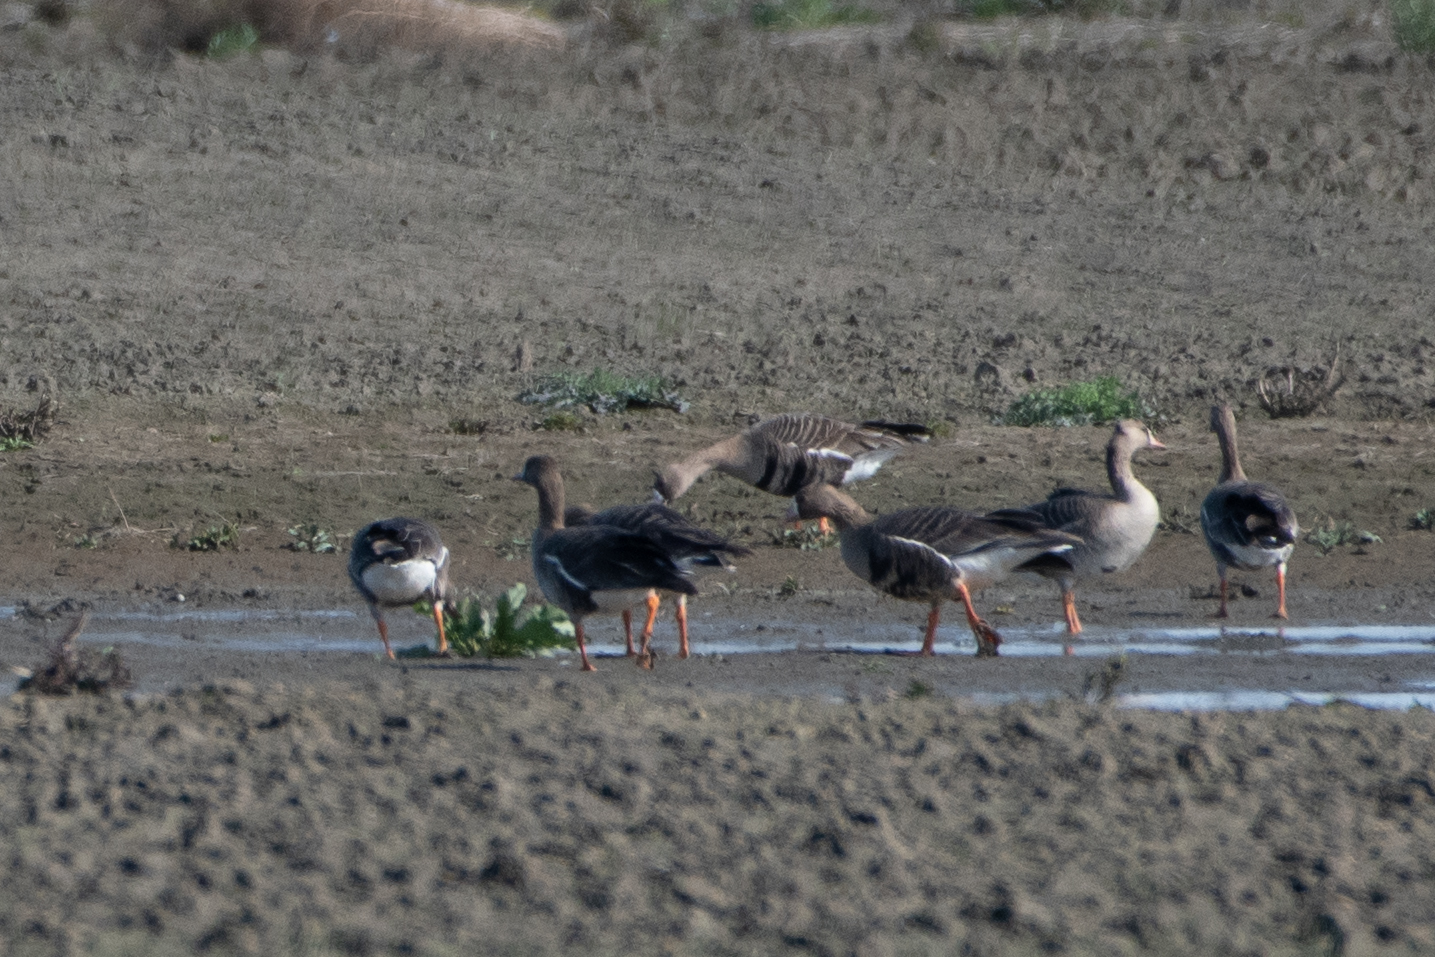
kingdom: Animalia
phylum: Chordata
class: Aves
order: Anseriformes
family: Anatidae
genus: Anser
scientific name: Anser albifrons
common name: Greater white-fronted goose
